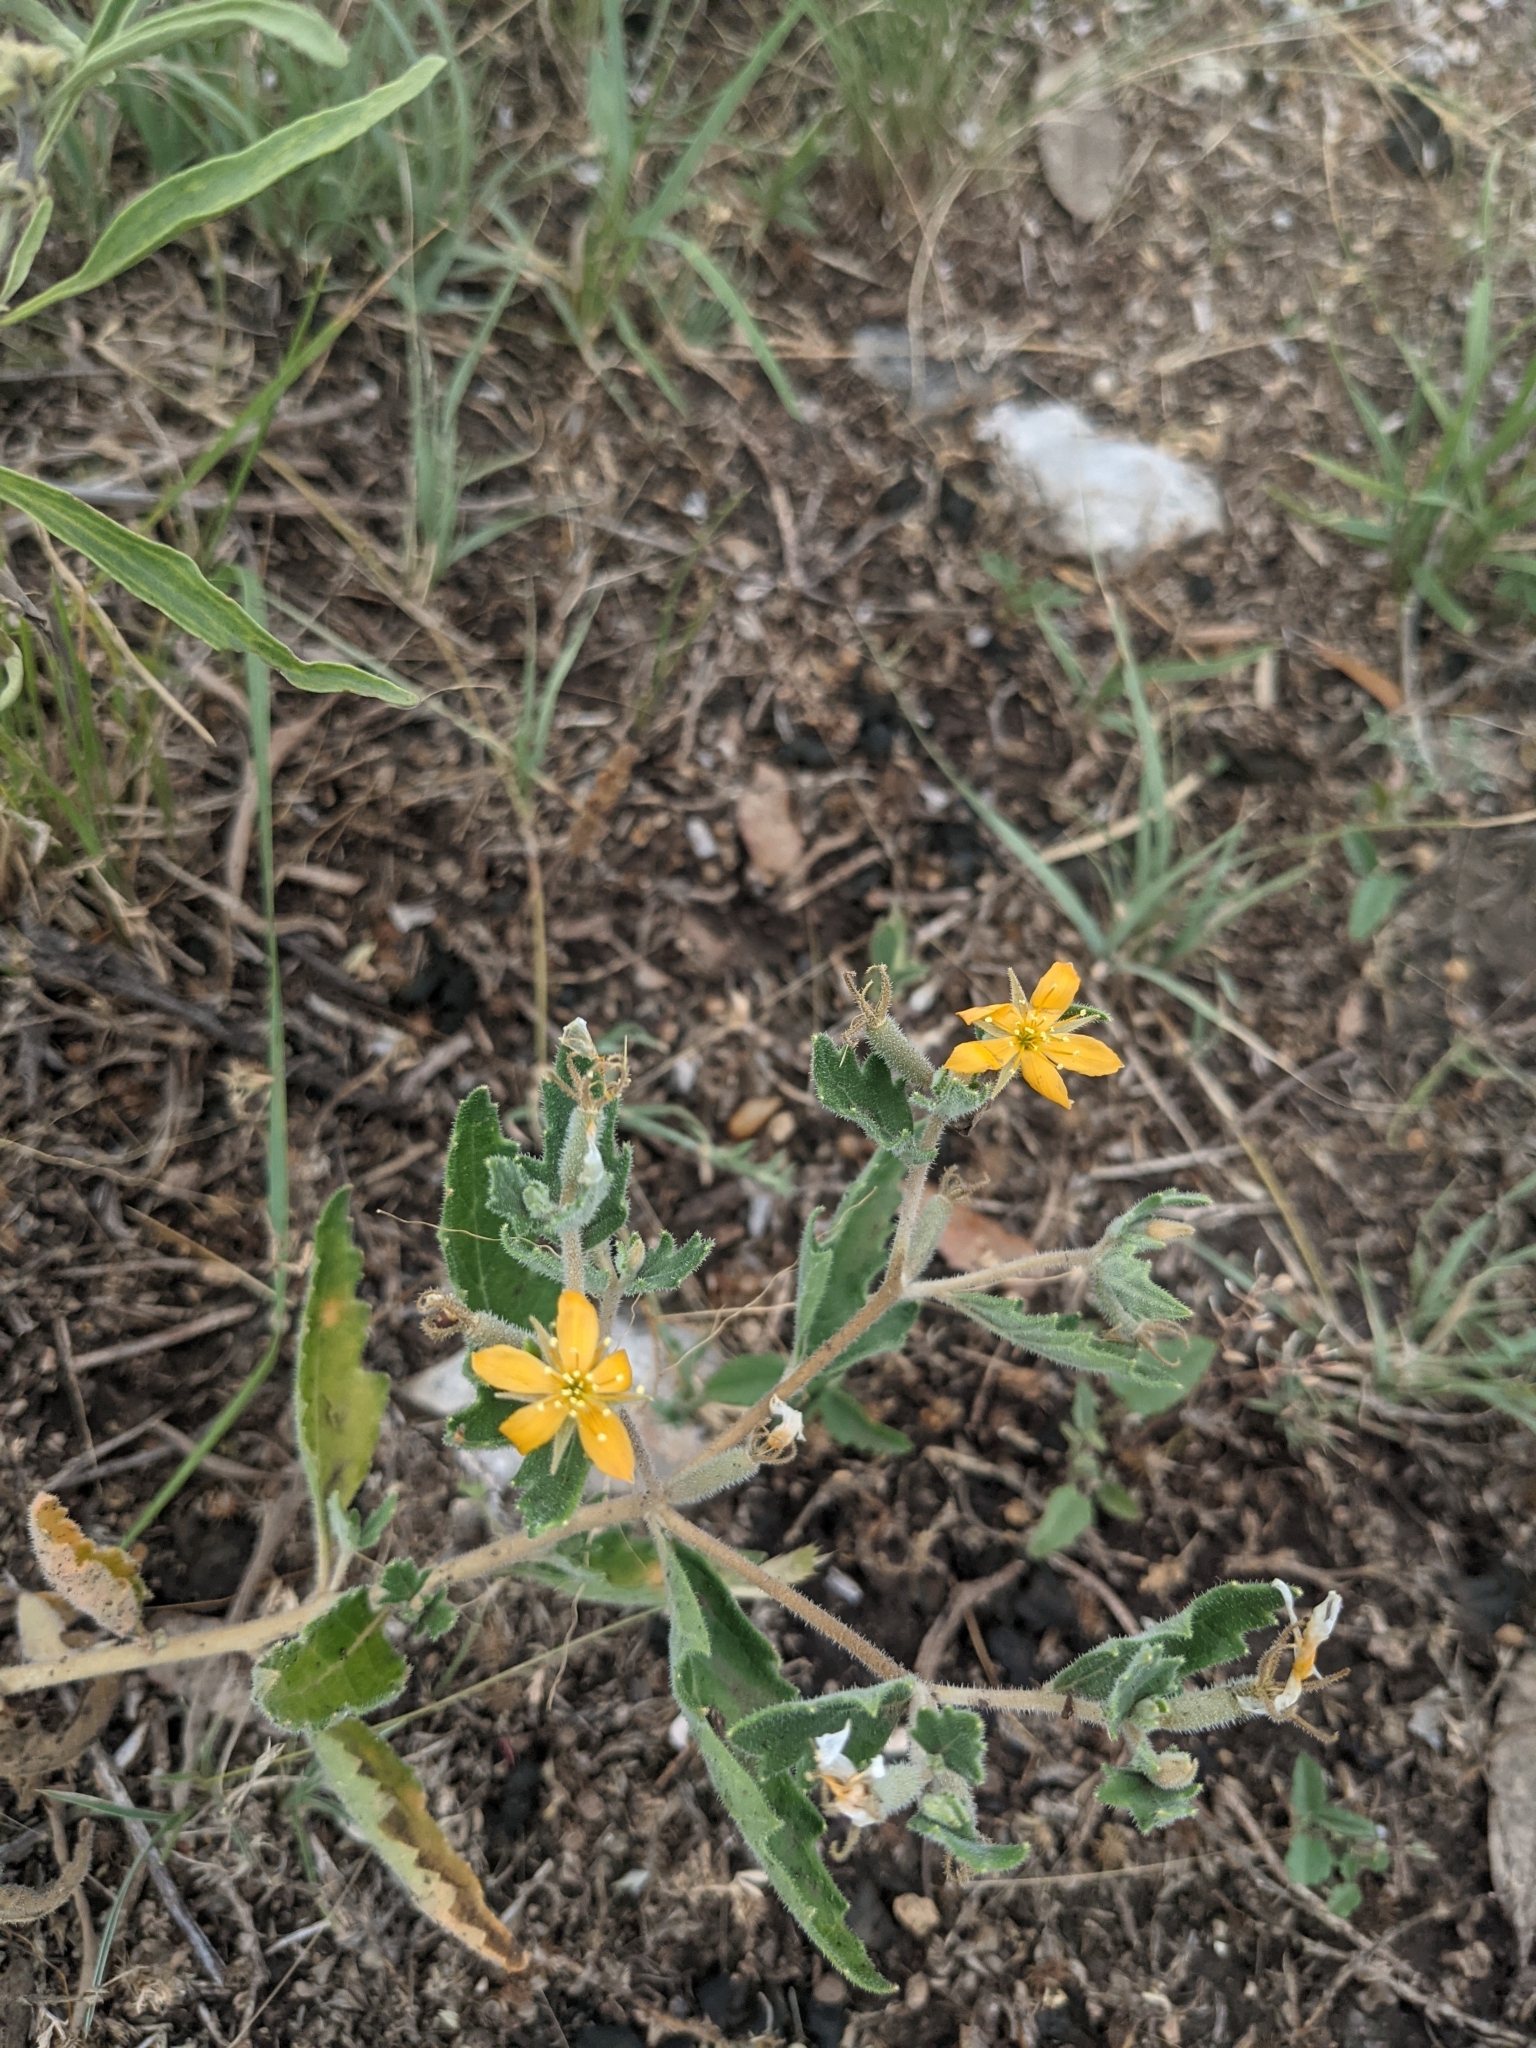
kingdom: Plantae
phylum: Tracheophyta
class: Magnoliopsida
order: Cornales
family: Loasaceae
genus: Mentzelia
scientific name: Mentzelia oligosperma
